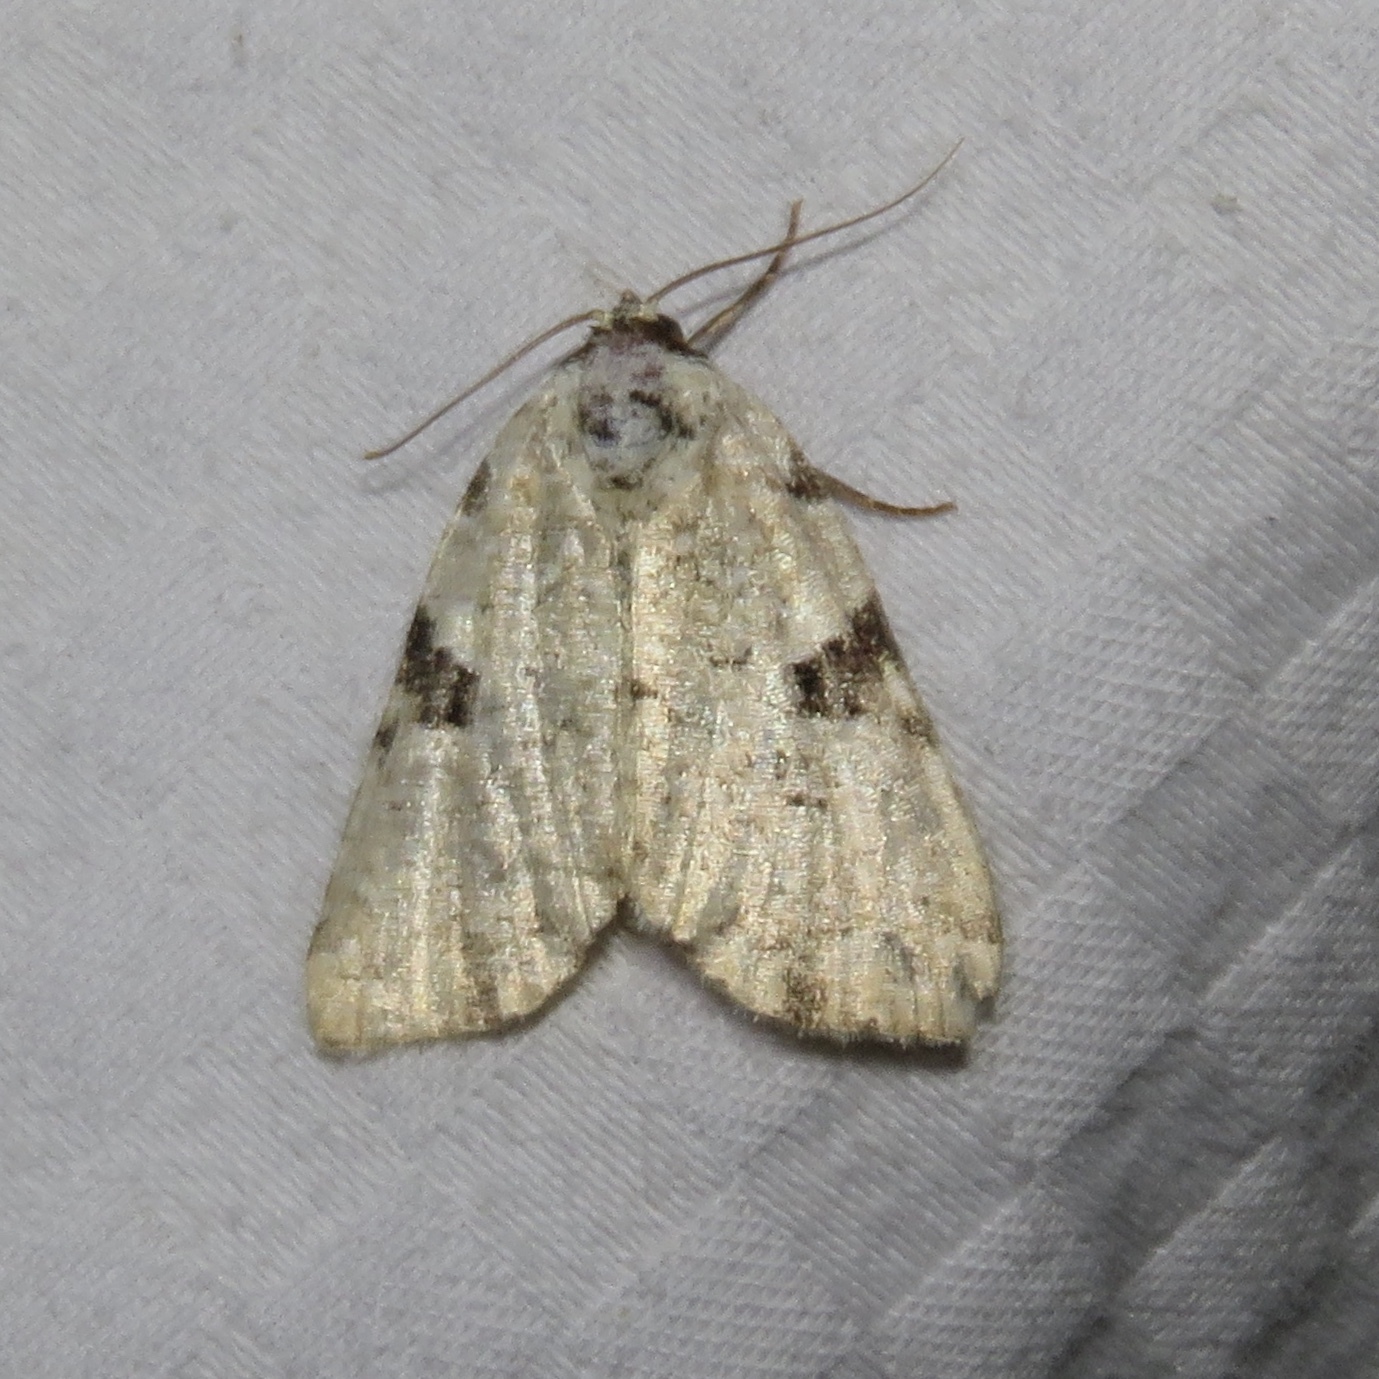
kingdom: Animalia
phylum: Arthropoda
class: Insecta
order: Lepidoptera
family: Noctuidae
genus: Leuconycta
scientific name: Leuconycta diphteroides
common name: Green leuconycta moth
